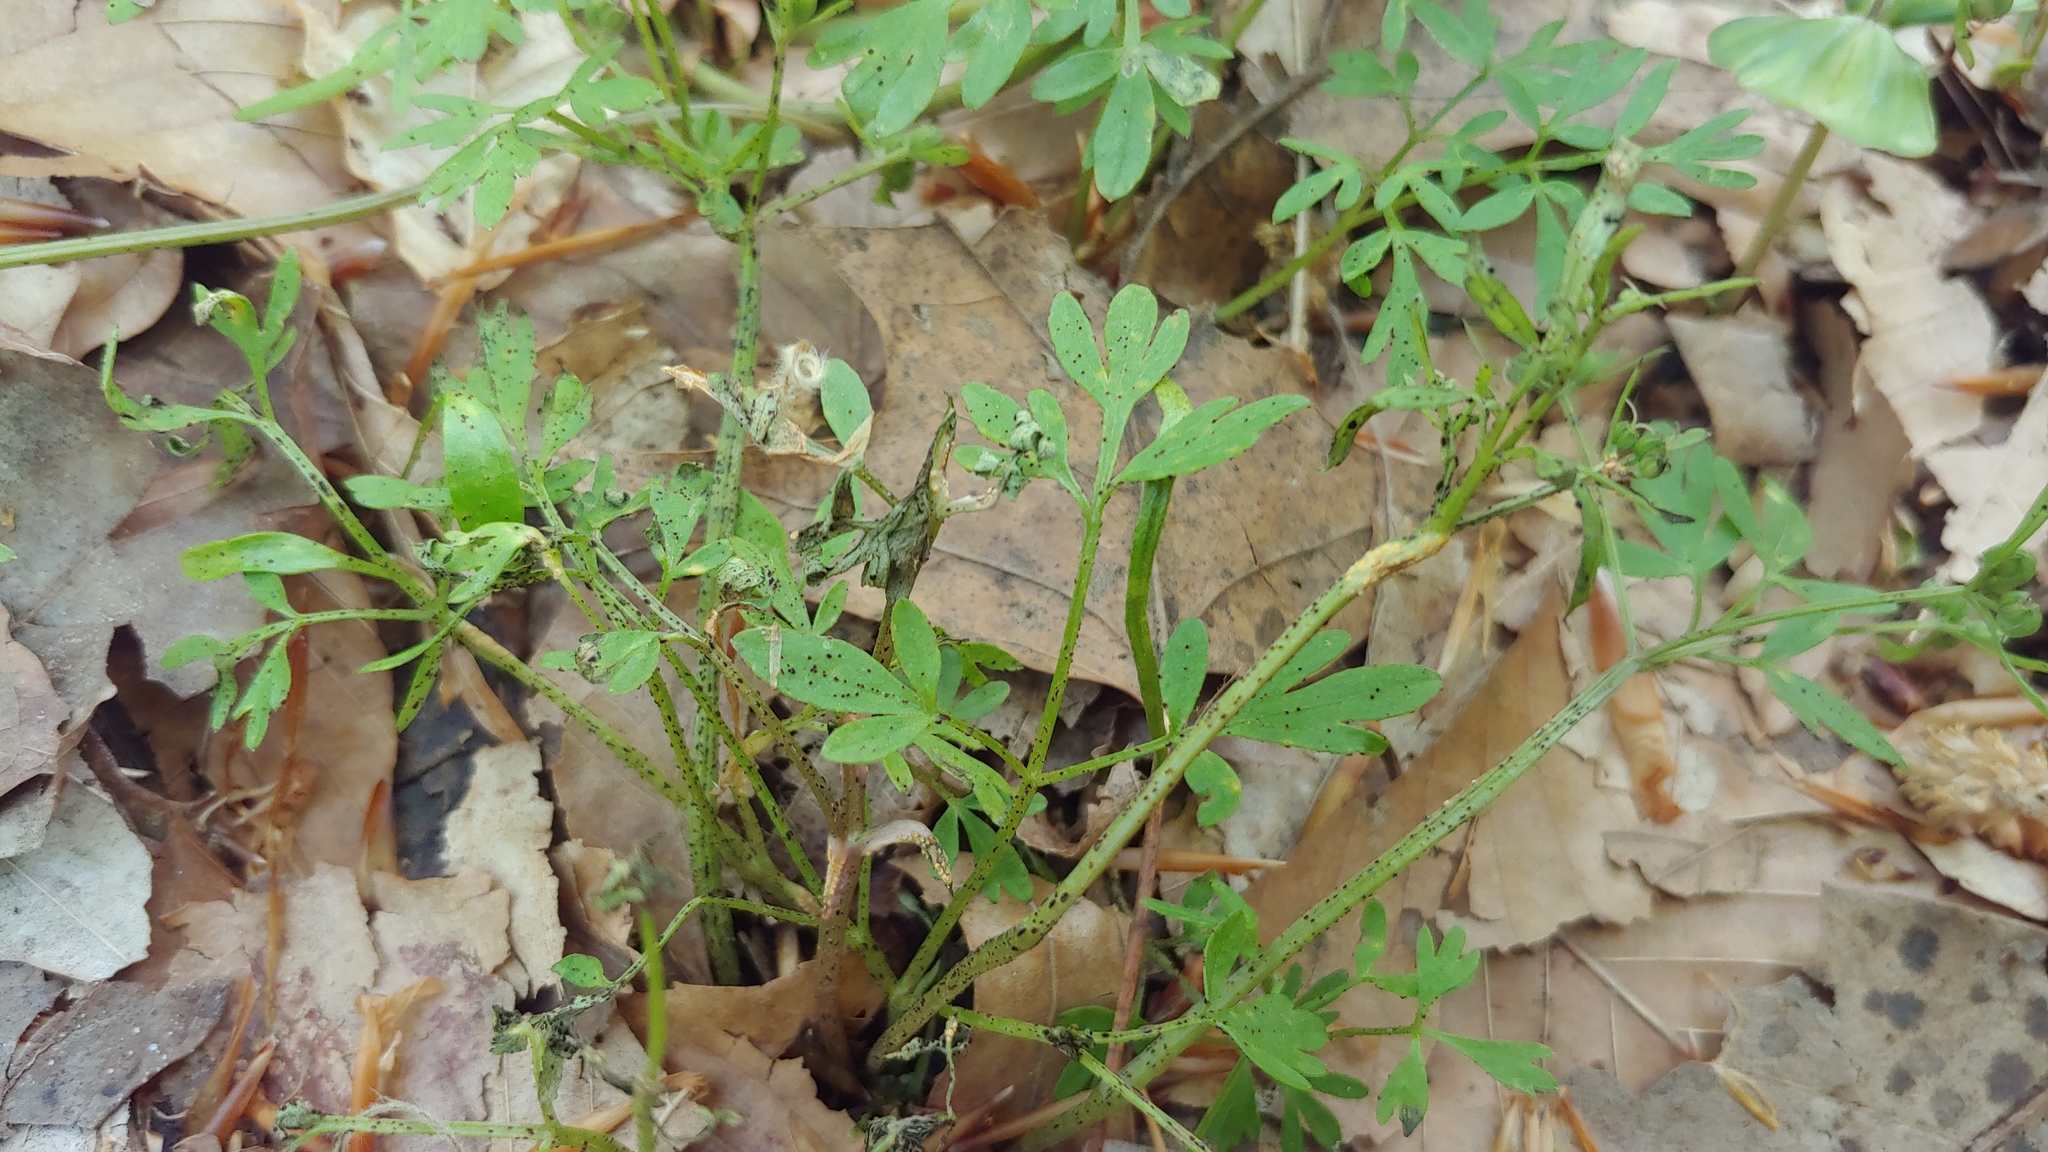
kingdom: Fungi
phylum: Basidiomycota
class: Pucciniomycetes
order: Pucciniales
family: Pucciniaceae
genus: Puccinia
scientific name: Puccinia erigeniae
